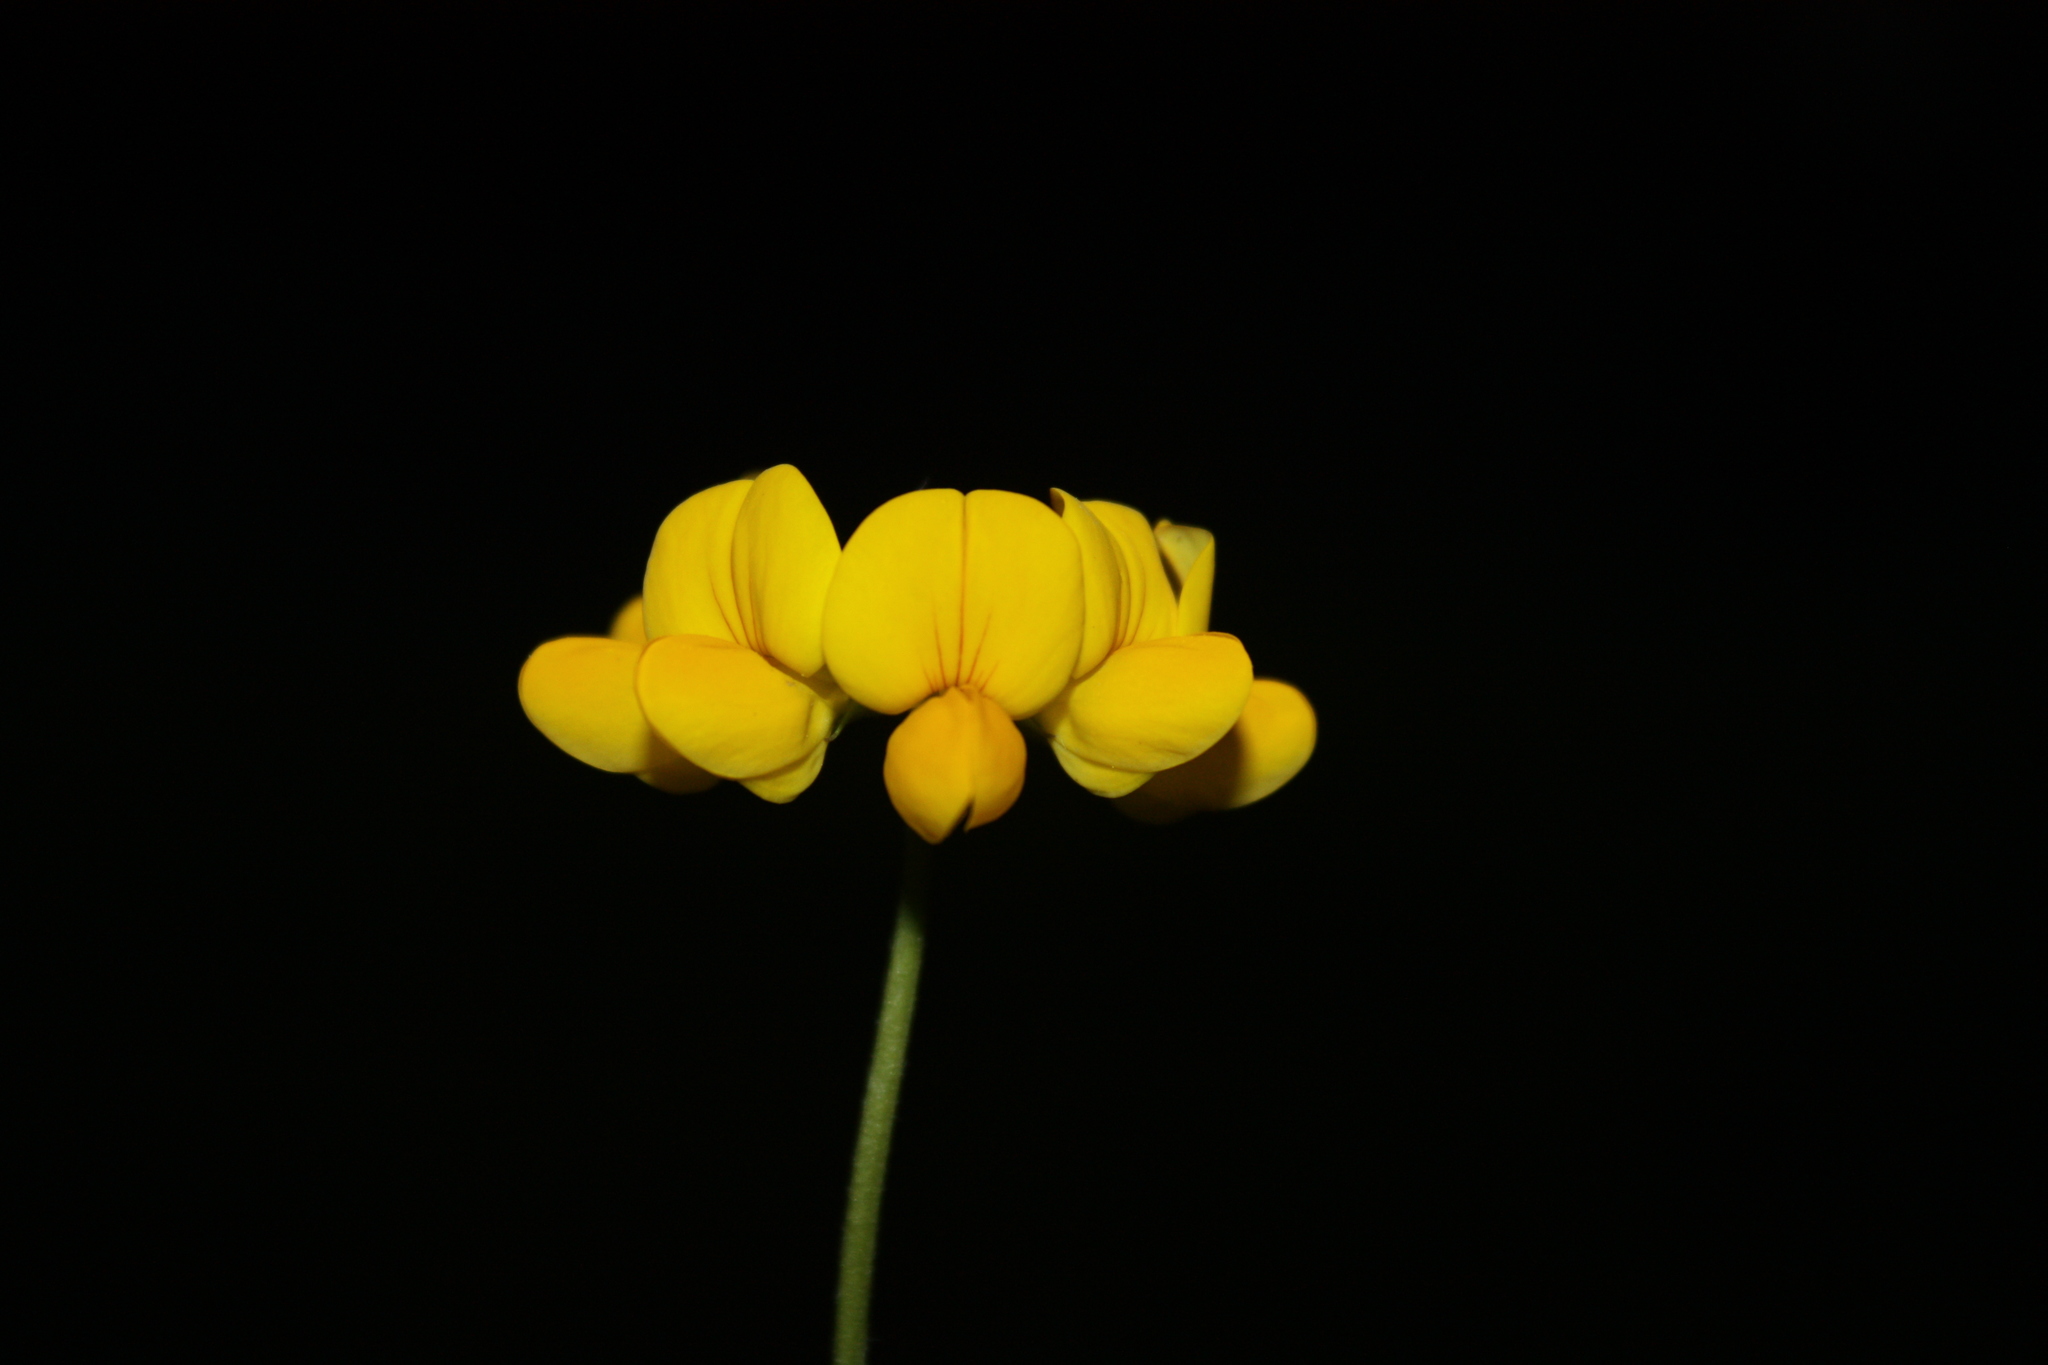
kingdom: Plantae
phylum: Tracheophyta
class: Magnoliopsida
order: Fabales
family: Fabaceae
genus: Lotus
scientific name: Lotus corniculatus
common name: Common bird's-foot-trefoil
